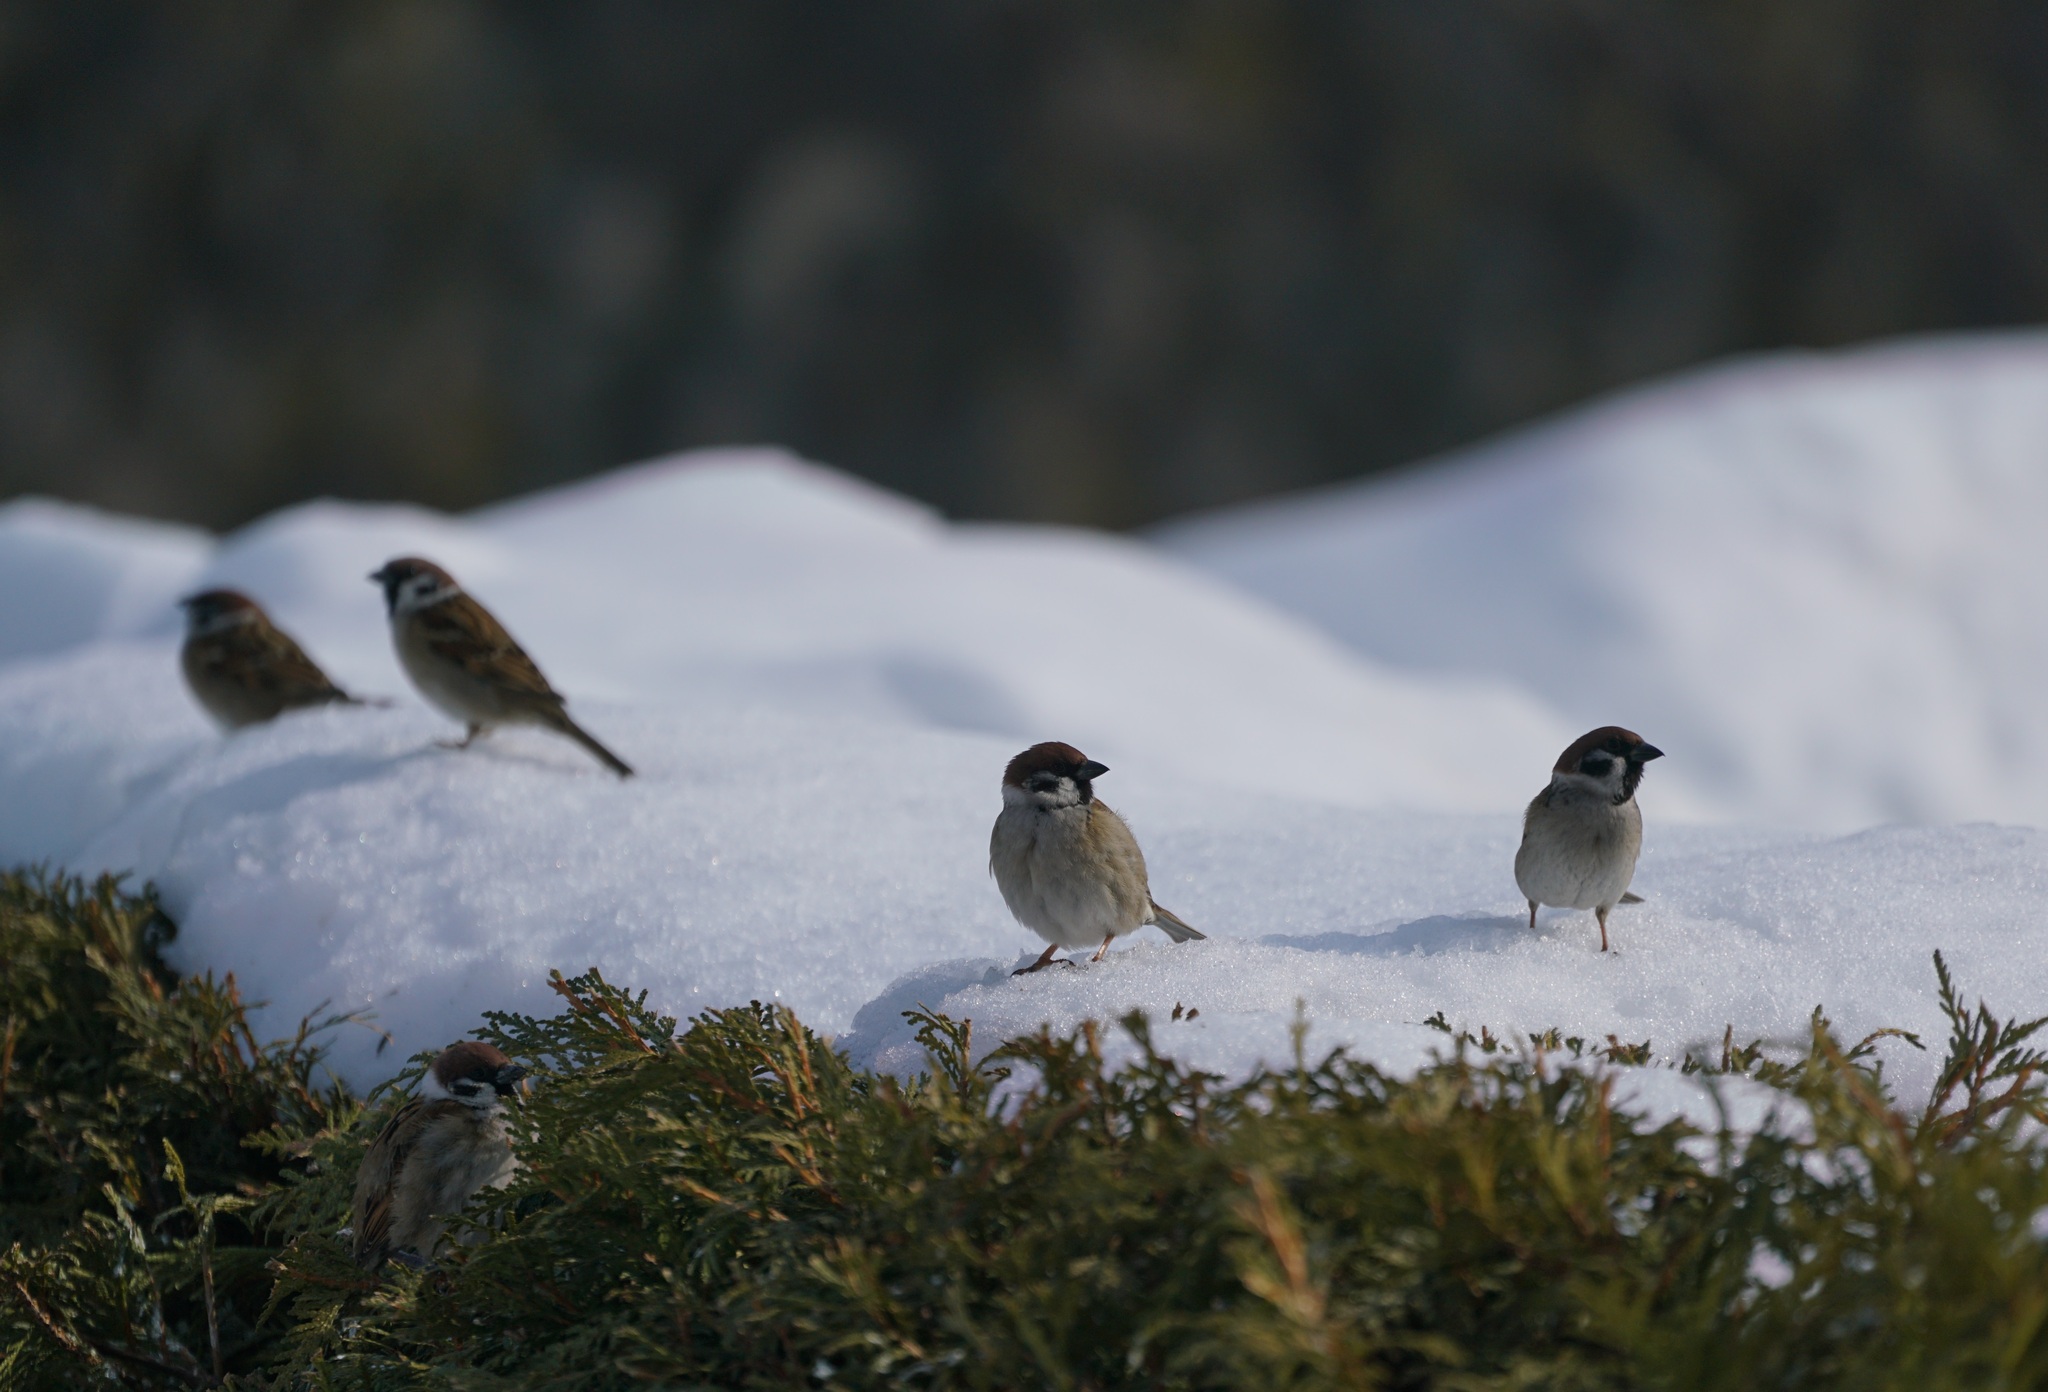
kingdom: Animalia
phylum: Chordata
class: Aves
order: Passeriformes
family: Passeridae
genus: Passer
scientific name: Passer montanus
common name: Eurasian tree sparrow
